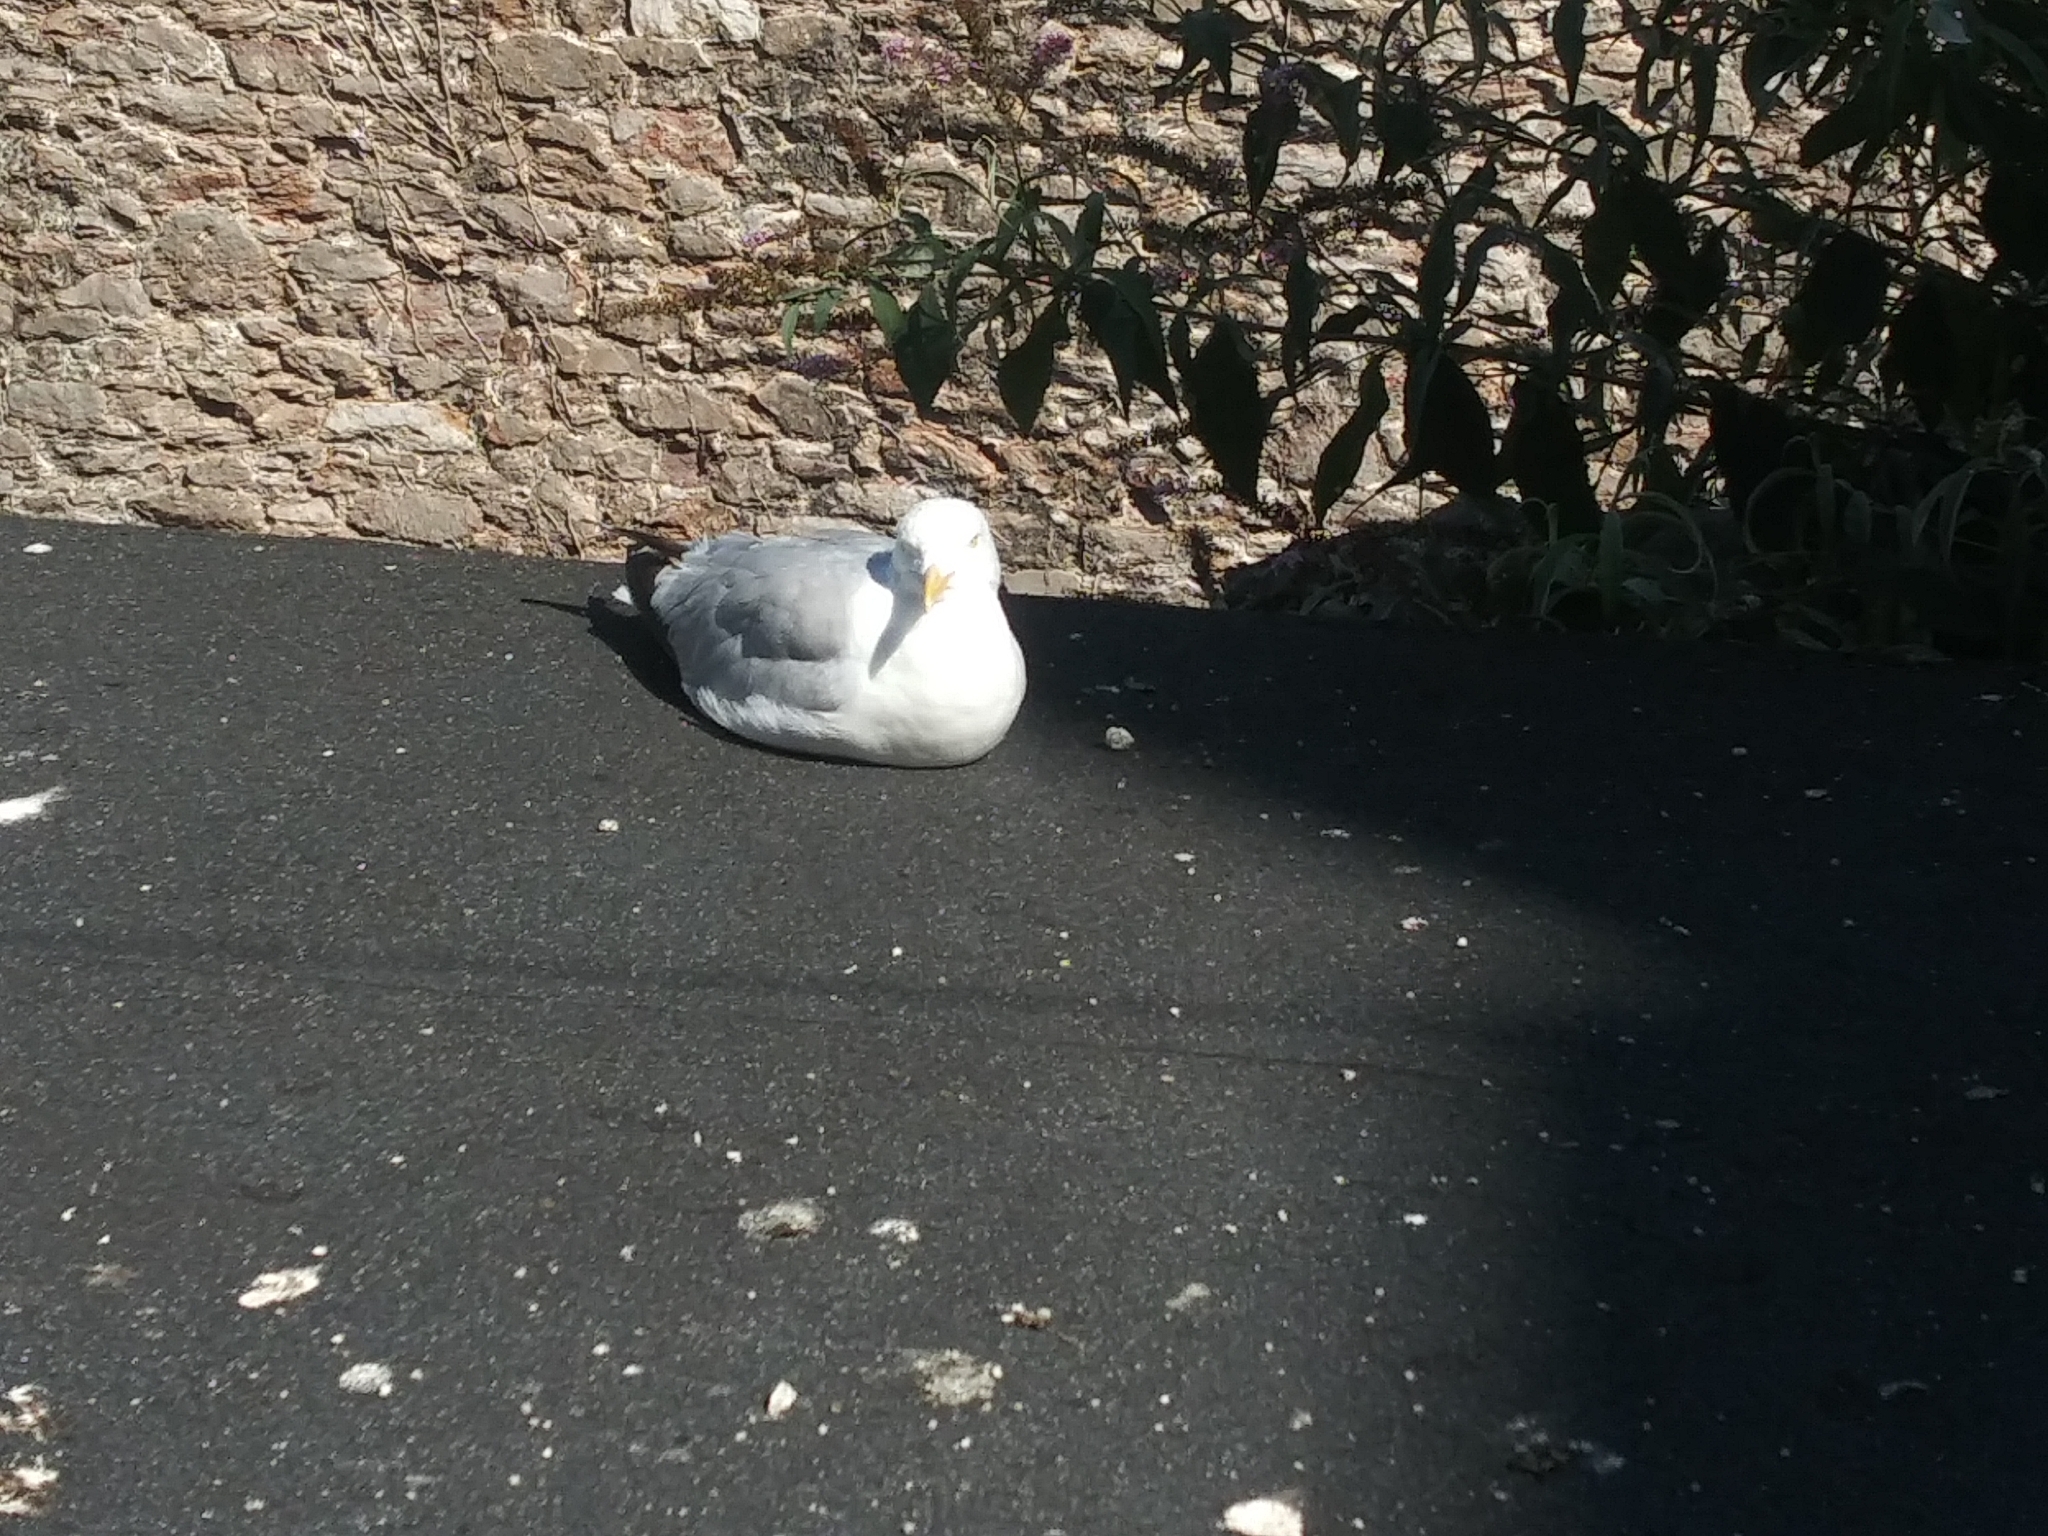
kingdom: Animalia
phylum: Chordata
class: Aves
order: Charadriiformes
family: Laridae
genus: Larus
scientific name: Larus argentatus
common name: Herring gull
